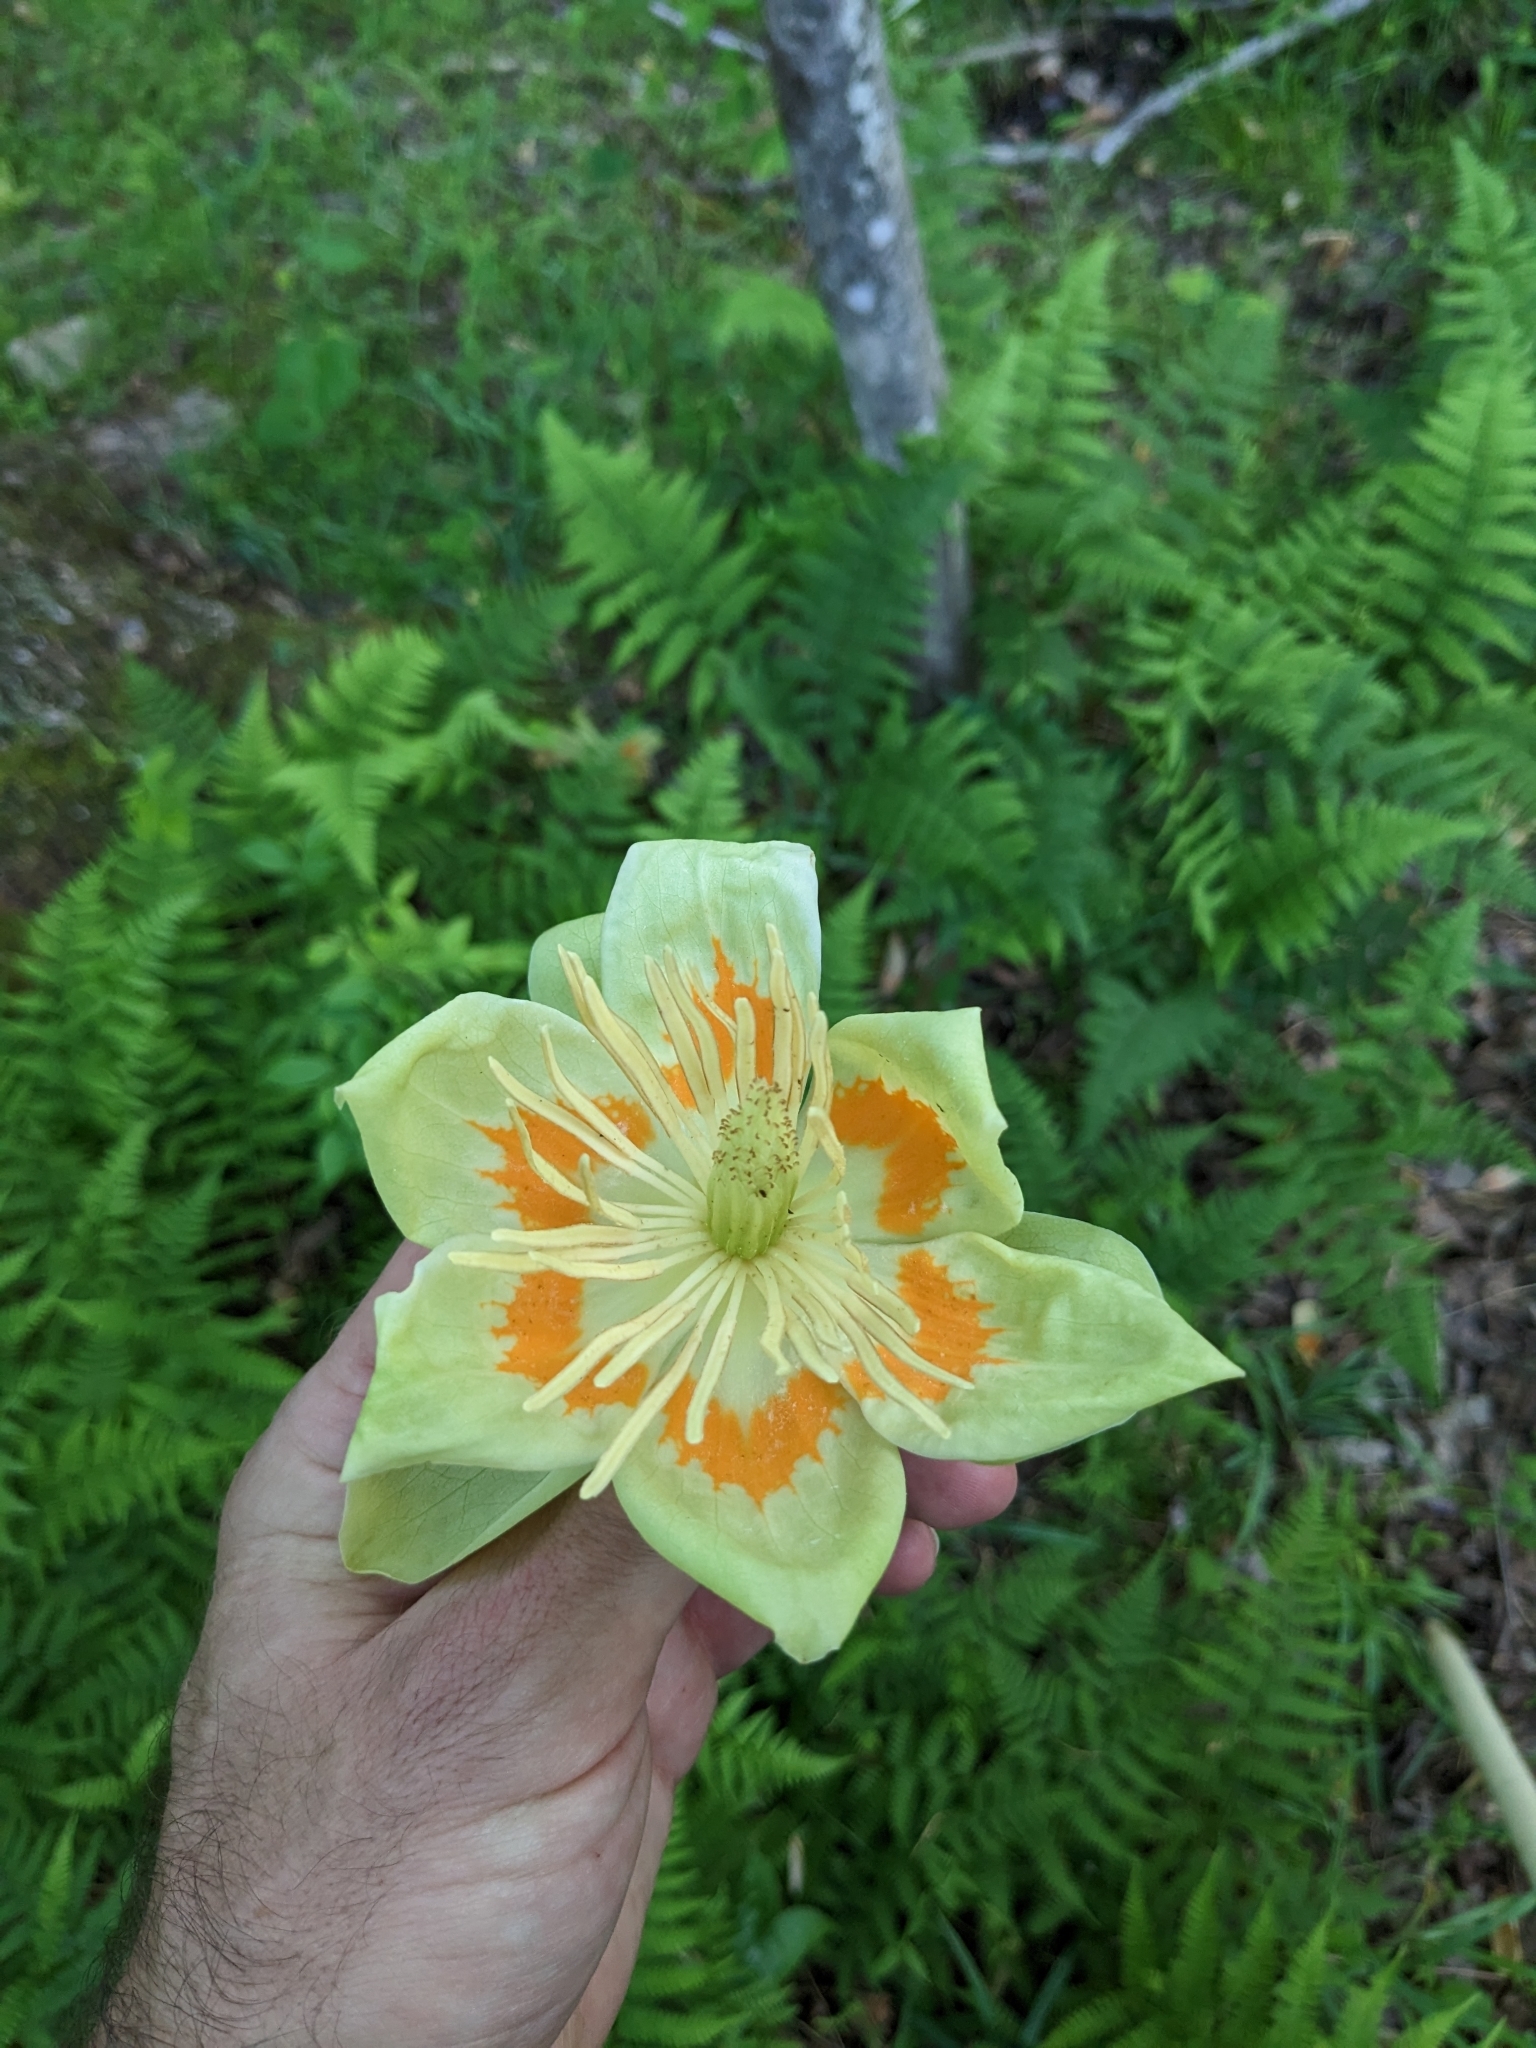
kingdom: Plantae
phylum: Tracheophyta
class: Magnoliopsida
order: Magnoliales
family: Magnoliaceae
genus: Liriodendron
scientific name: Liriodendron tulipifera
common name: Tulip tree
